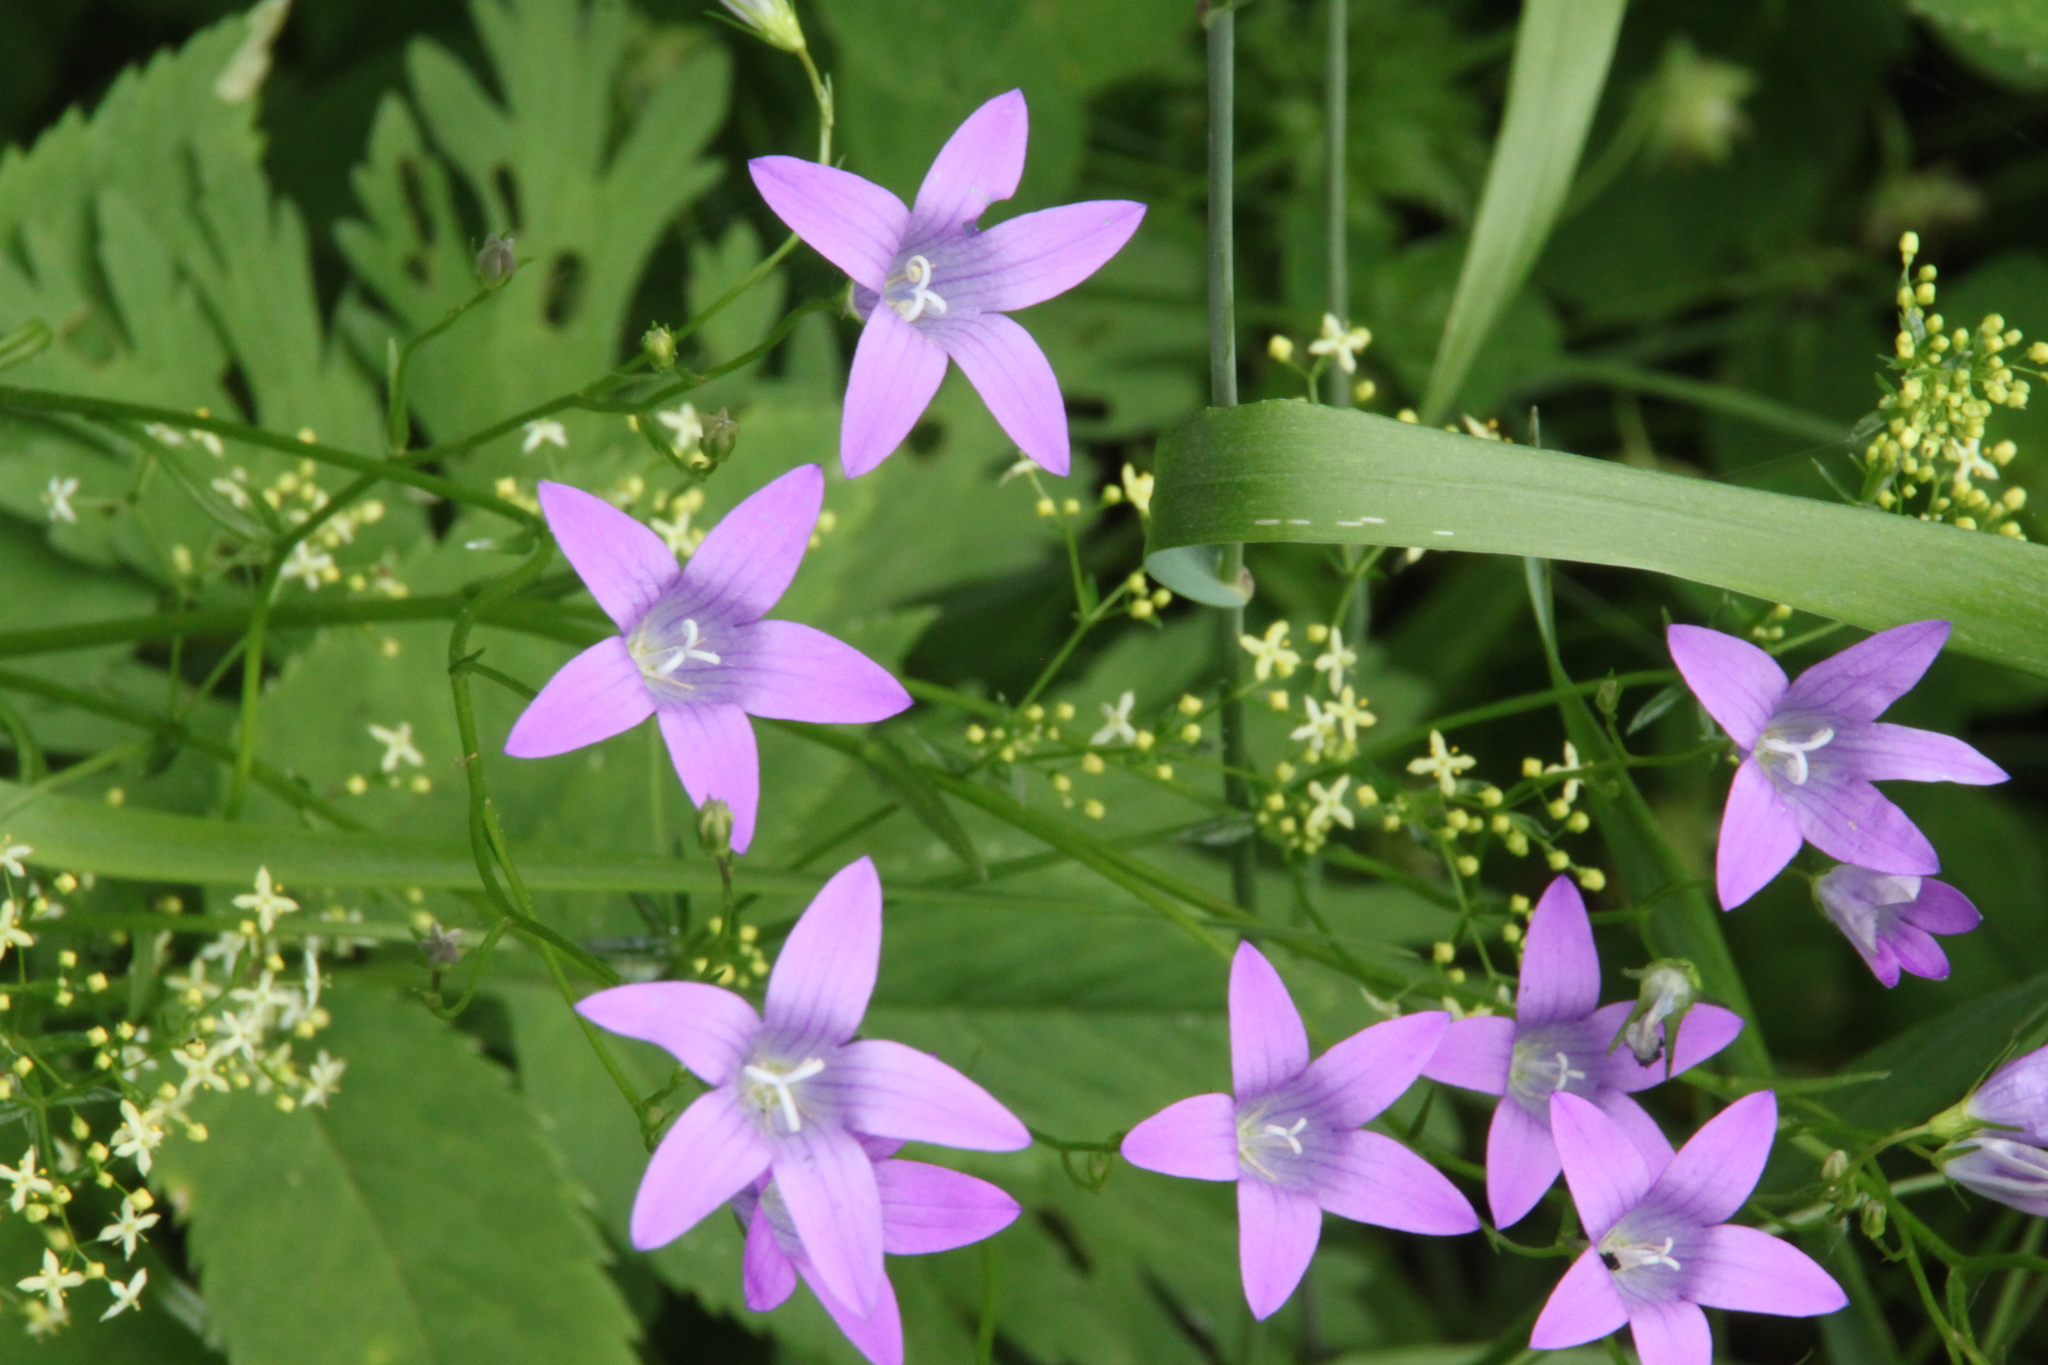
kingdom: Plantae
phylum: Tracheophyta
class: Magnoliopsida
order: Asterales
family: Campanulaceae
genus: Campanula
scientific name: Campanula patula
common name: Spreading bellflower
